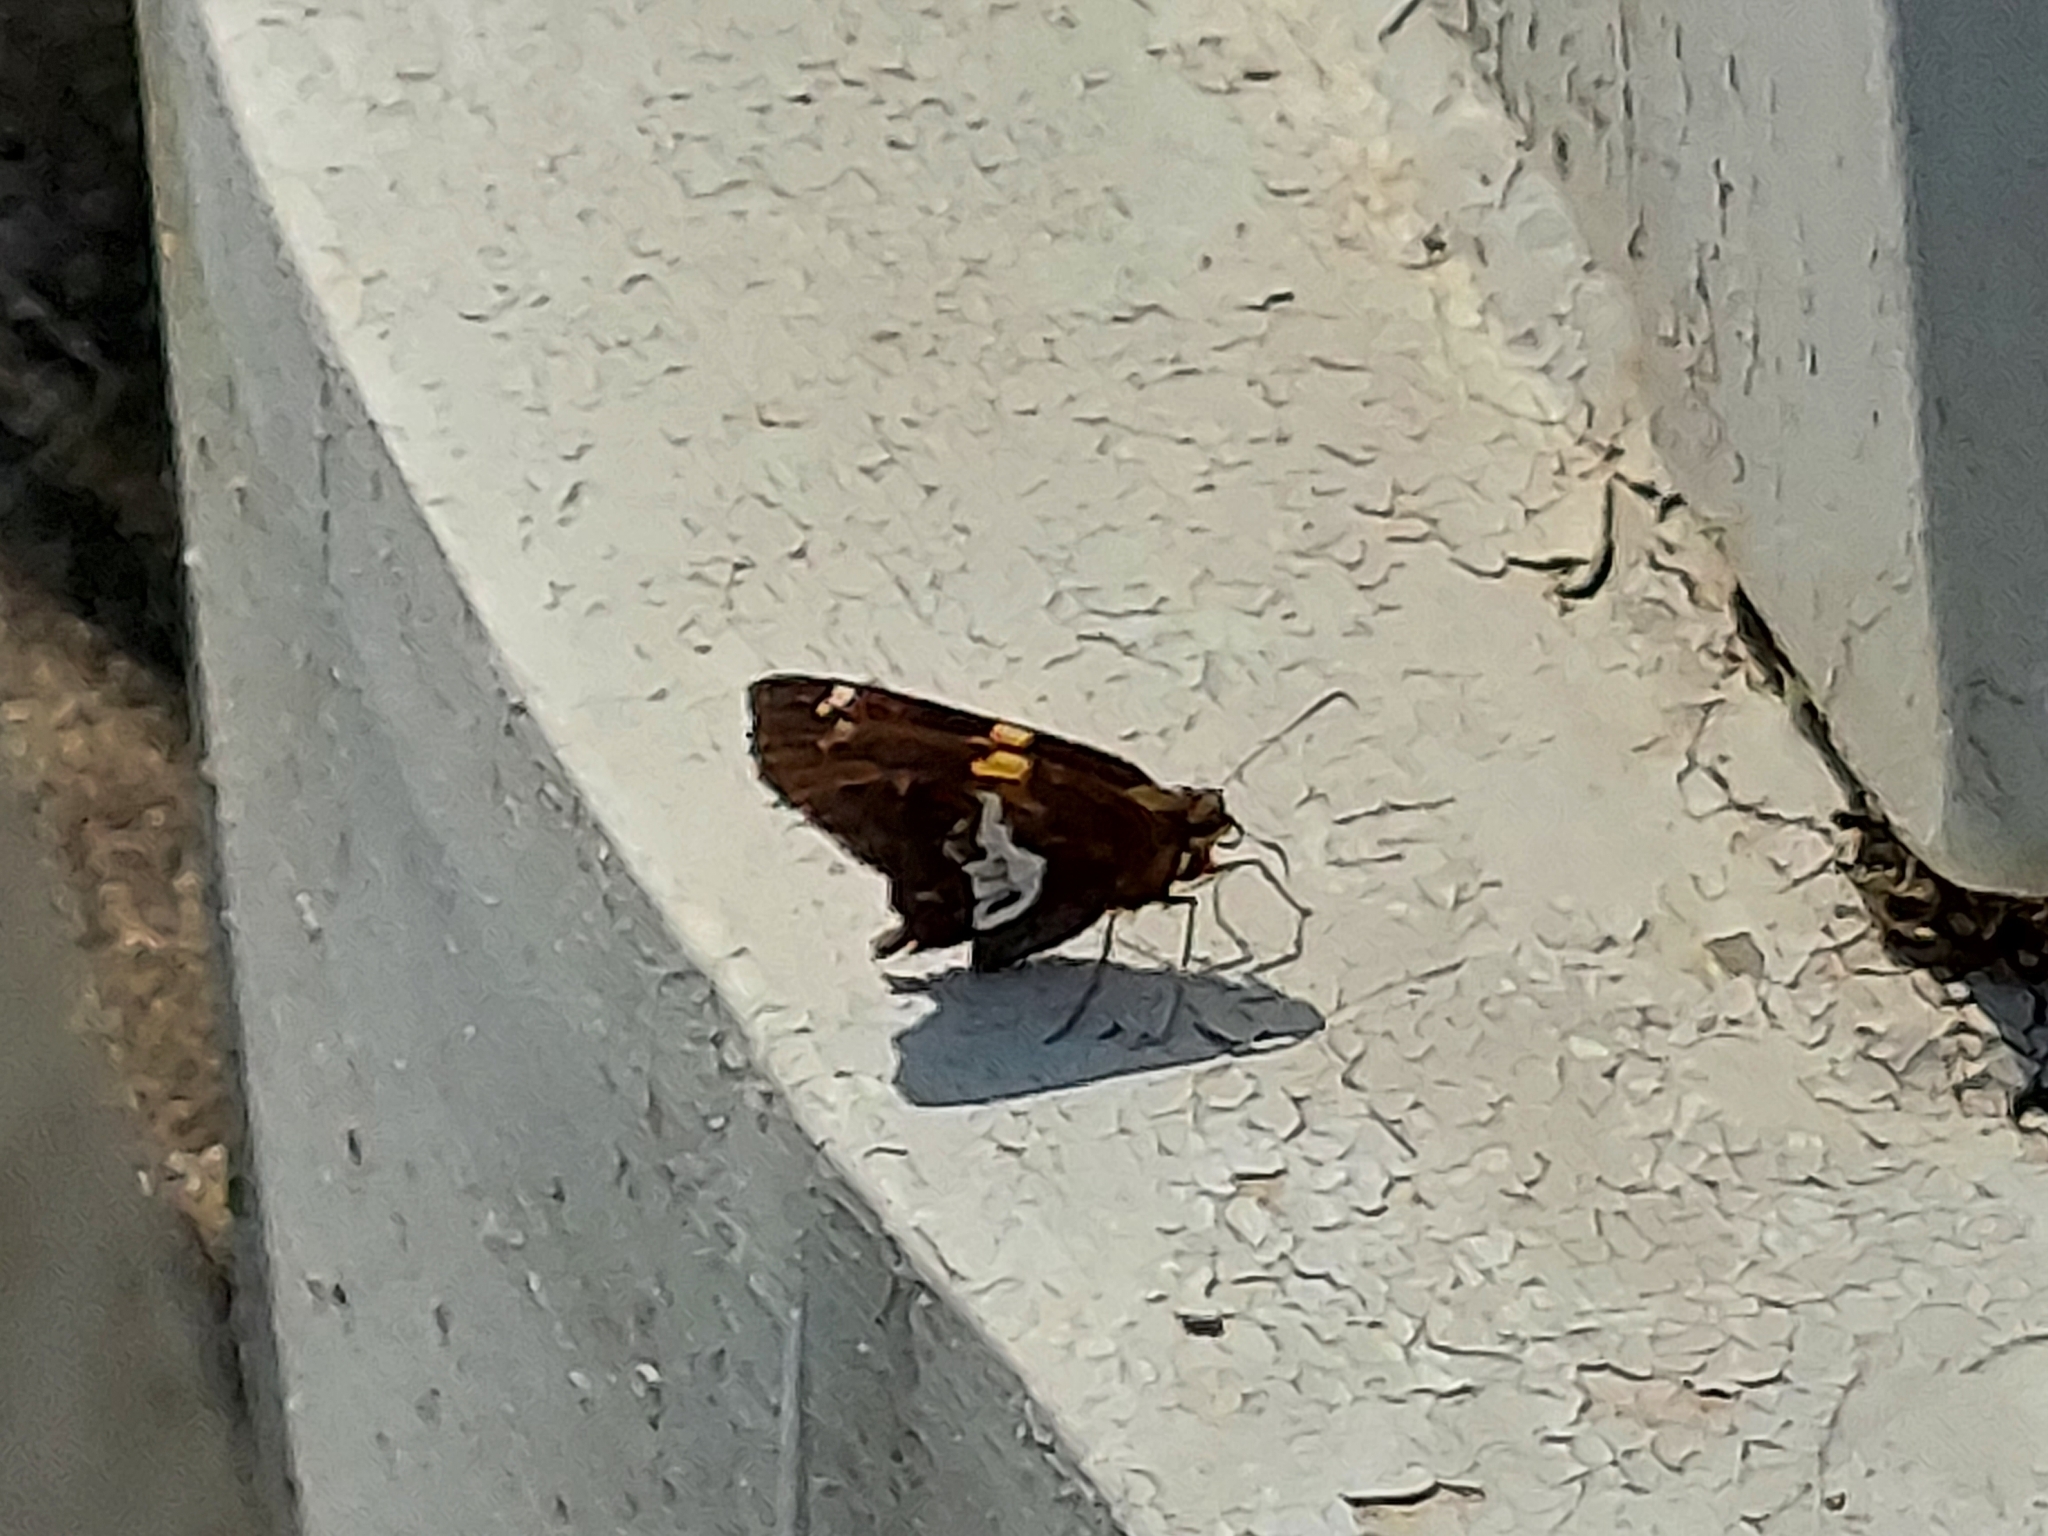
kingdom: Animalia
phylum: Arthropoda
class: Insecta
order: Lepidoptera
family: Hesperiidae
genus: Epargyreus
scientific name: Epargyreus clarus
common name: Silver-spotted skipper
